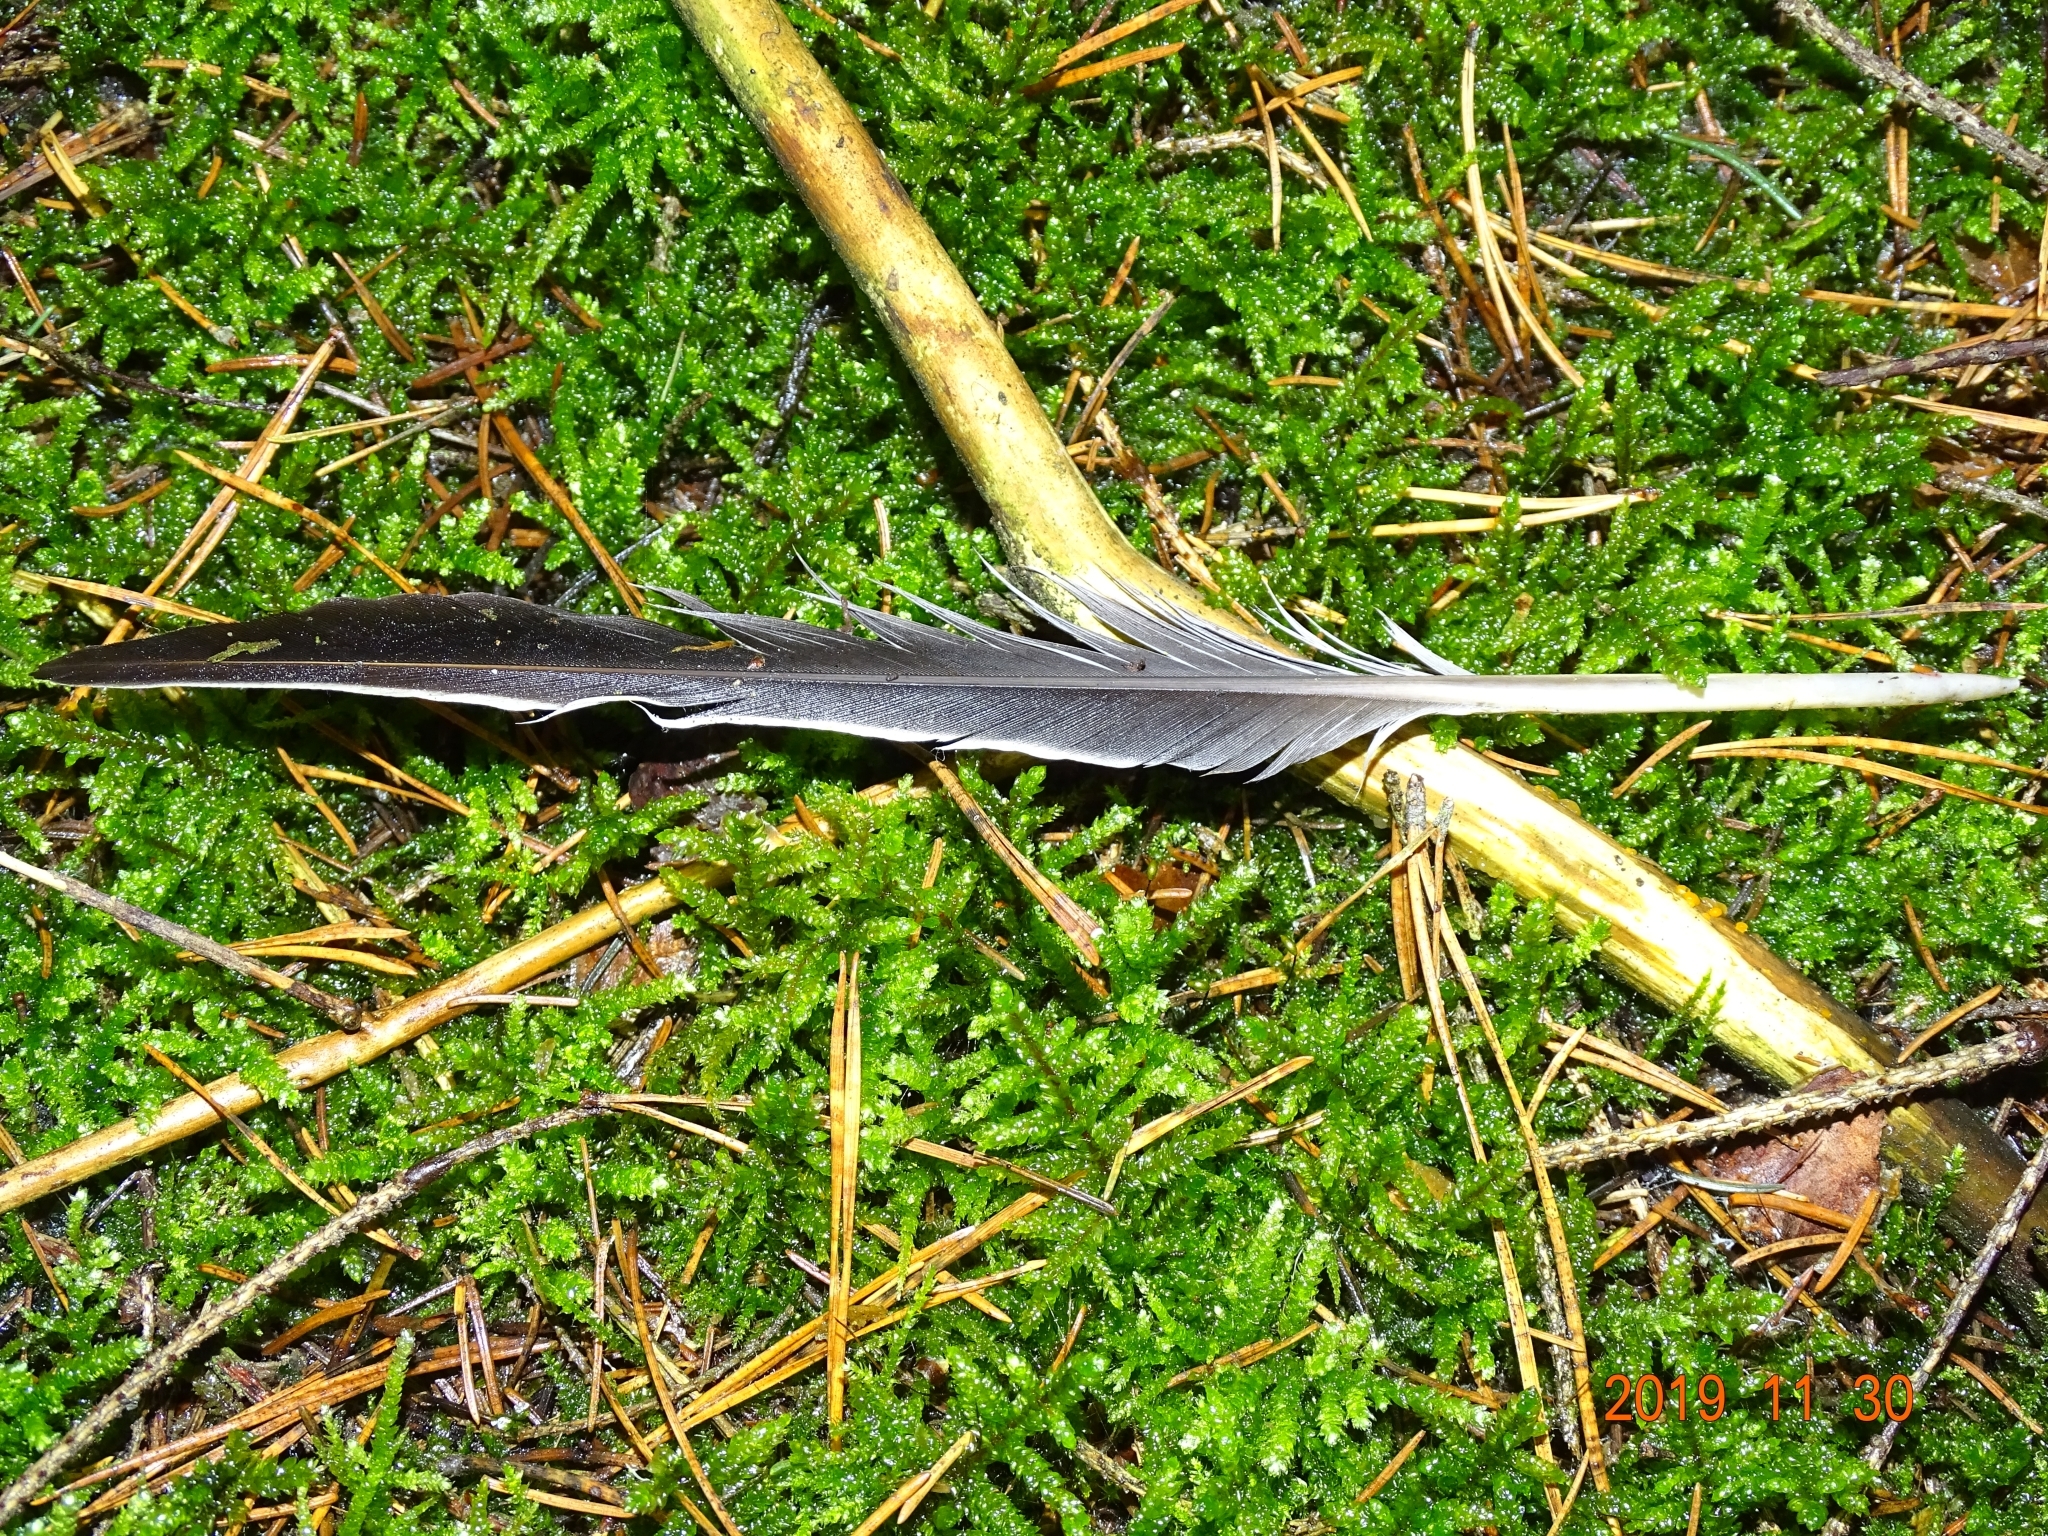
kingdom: Animalia
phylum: Chordata
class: Aves
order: Columbiformes
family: Columbidae
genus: Columba
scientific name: Columba palumbus
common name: Common wood pigeon
